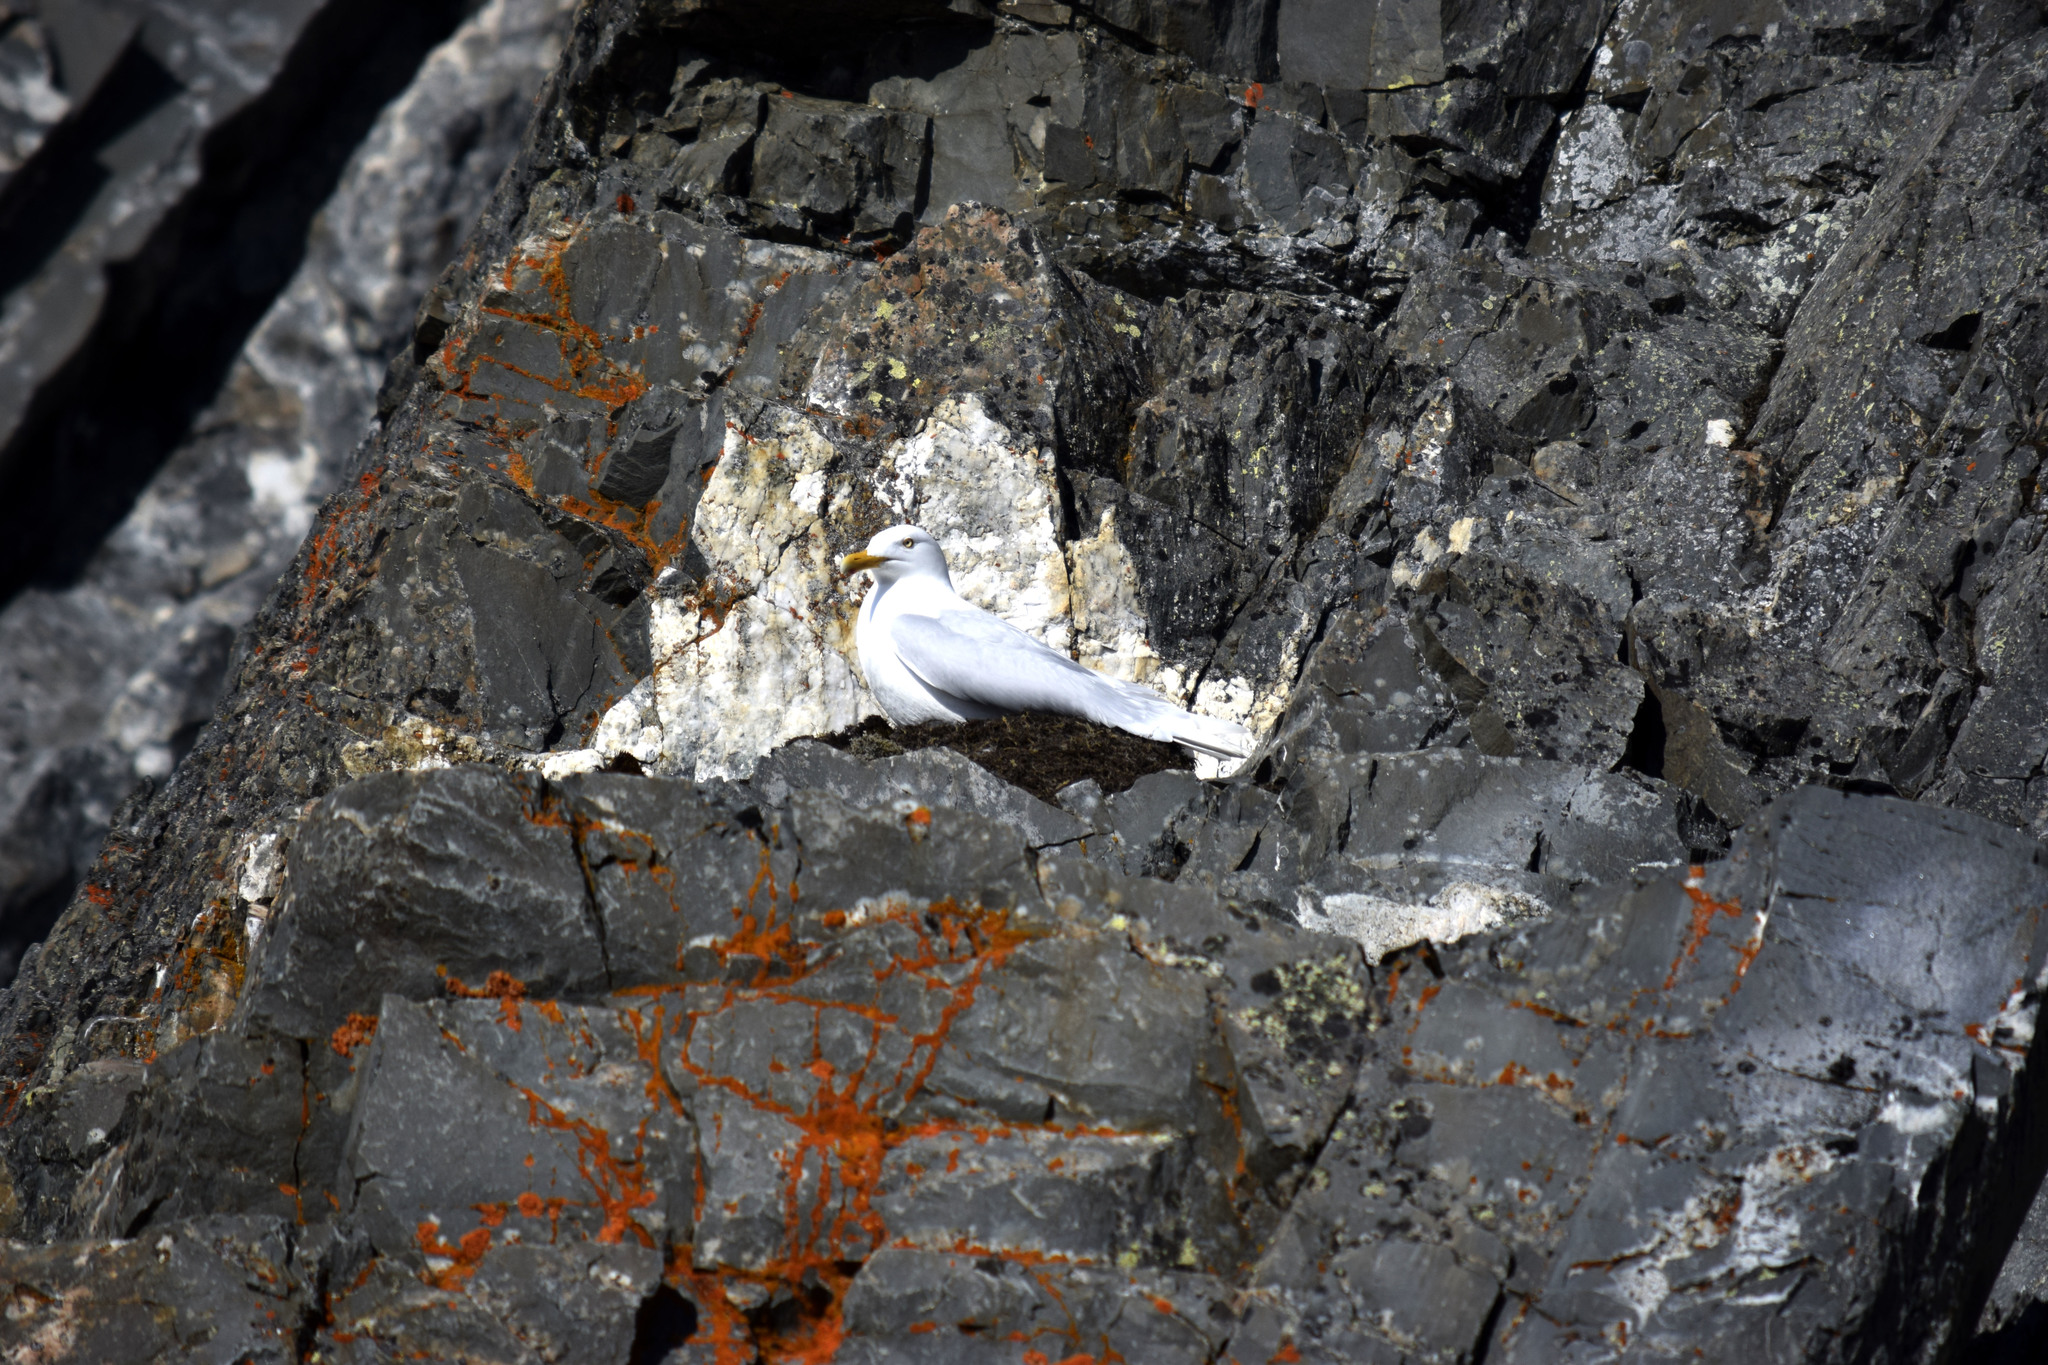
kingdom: Animalia
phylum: Chordata
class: Aves
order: Charadriiformes
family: Laridae
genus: Larus
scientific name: Larus hyperboreus
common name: Glaucous gull
